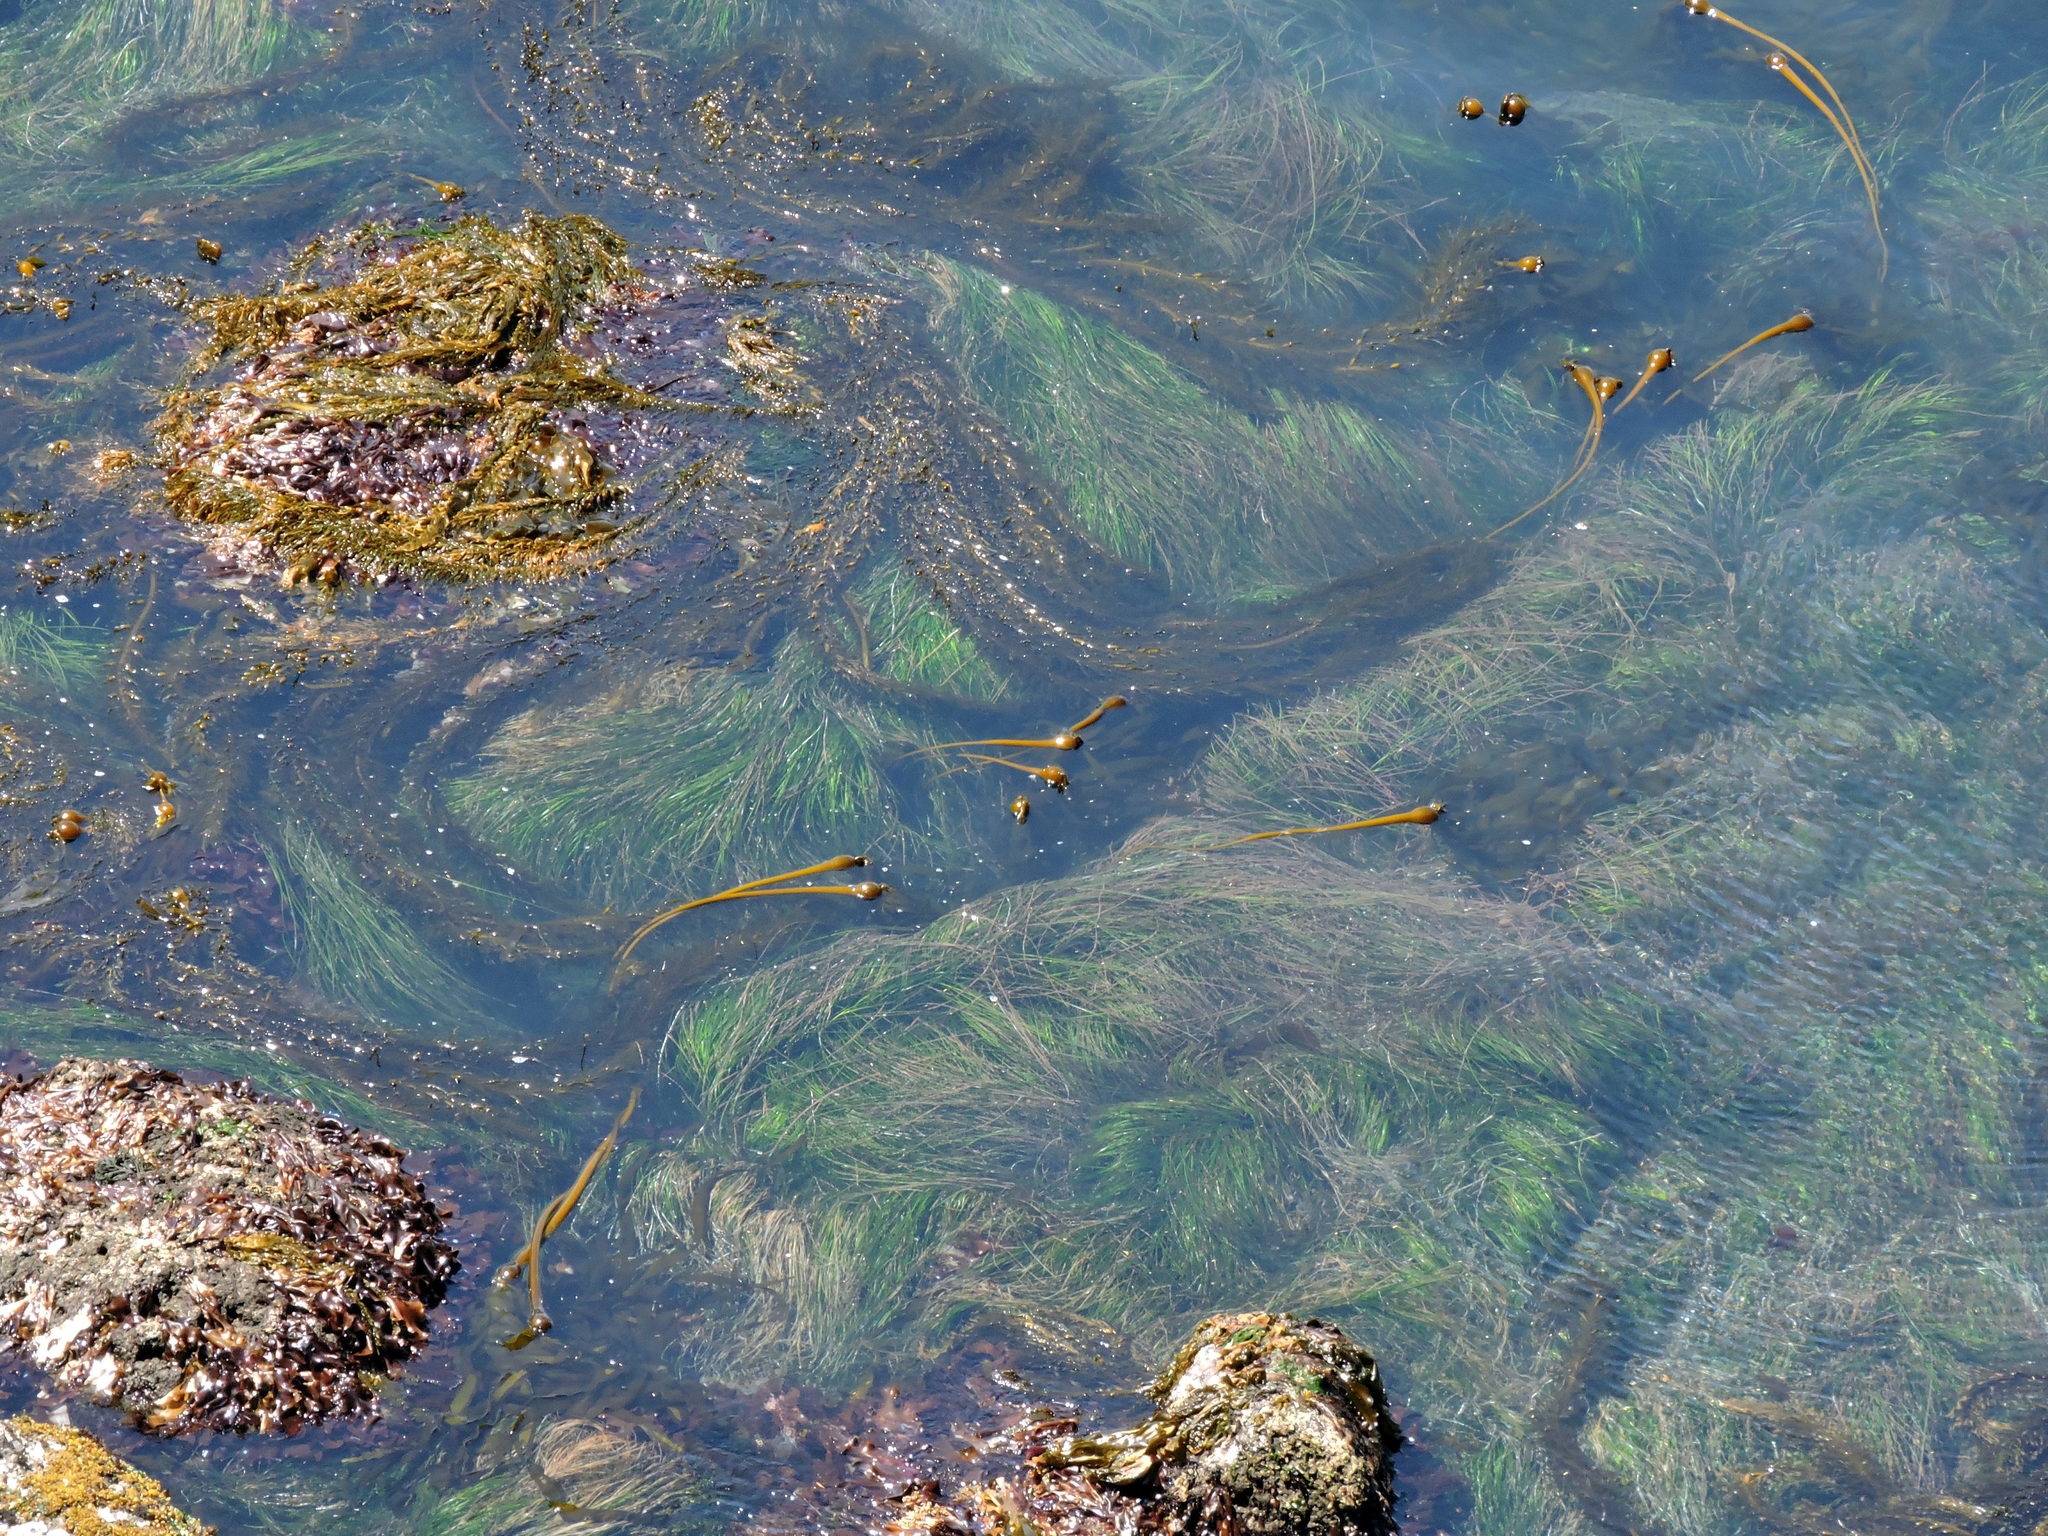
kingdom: Chromista
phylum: Ochrophyta
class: Phaeophyceae
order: Laminariales
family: Laminariaceae
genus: Nereocystis
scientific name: Nereocystis luetkeana
